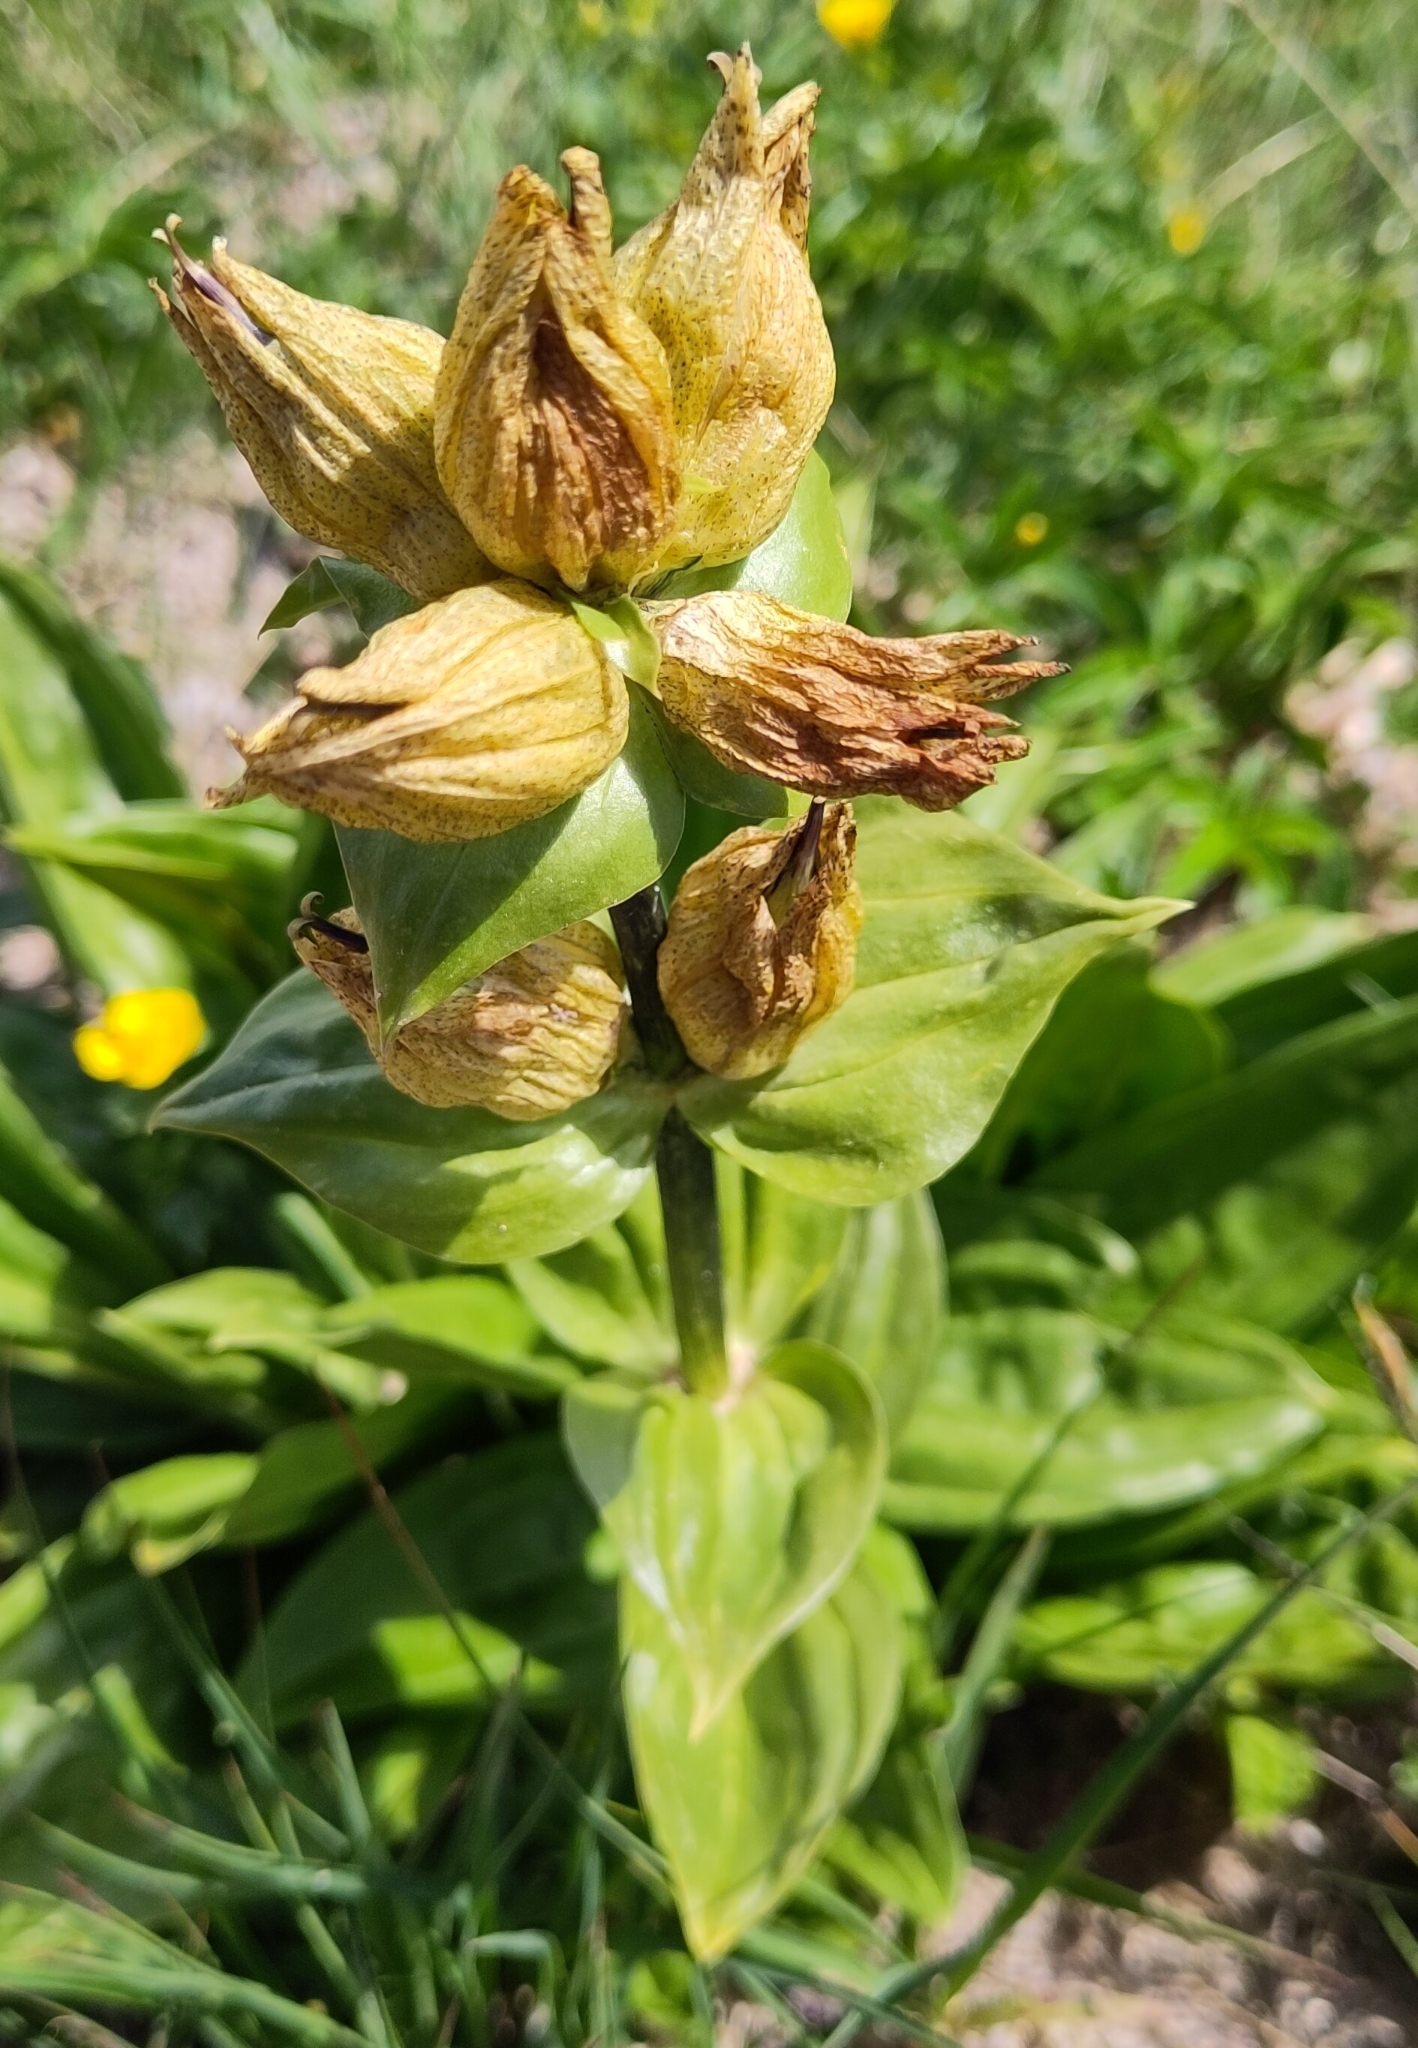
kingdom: Plantae
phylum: Tracheophyta
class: Magnoliopsida
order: Gentianales
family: Gentianaceae
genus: Gentiana
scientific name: Gentiana punctata
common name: Spotted gentian
